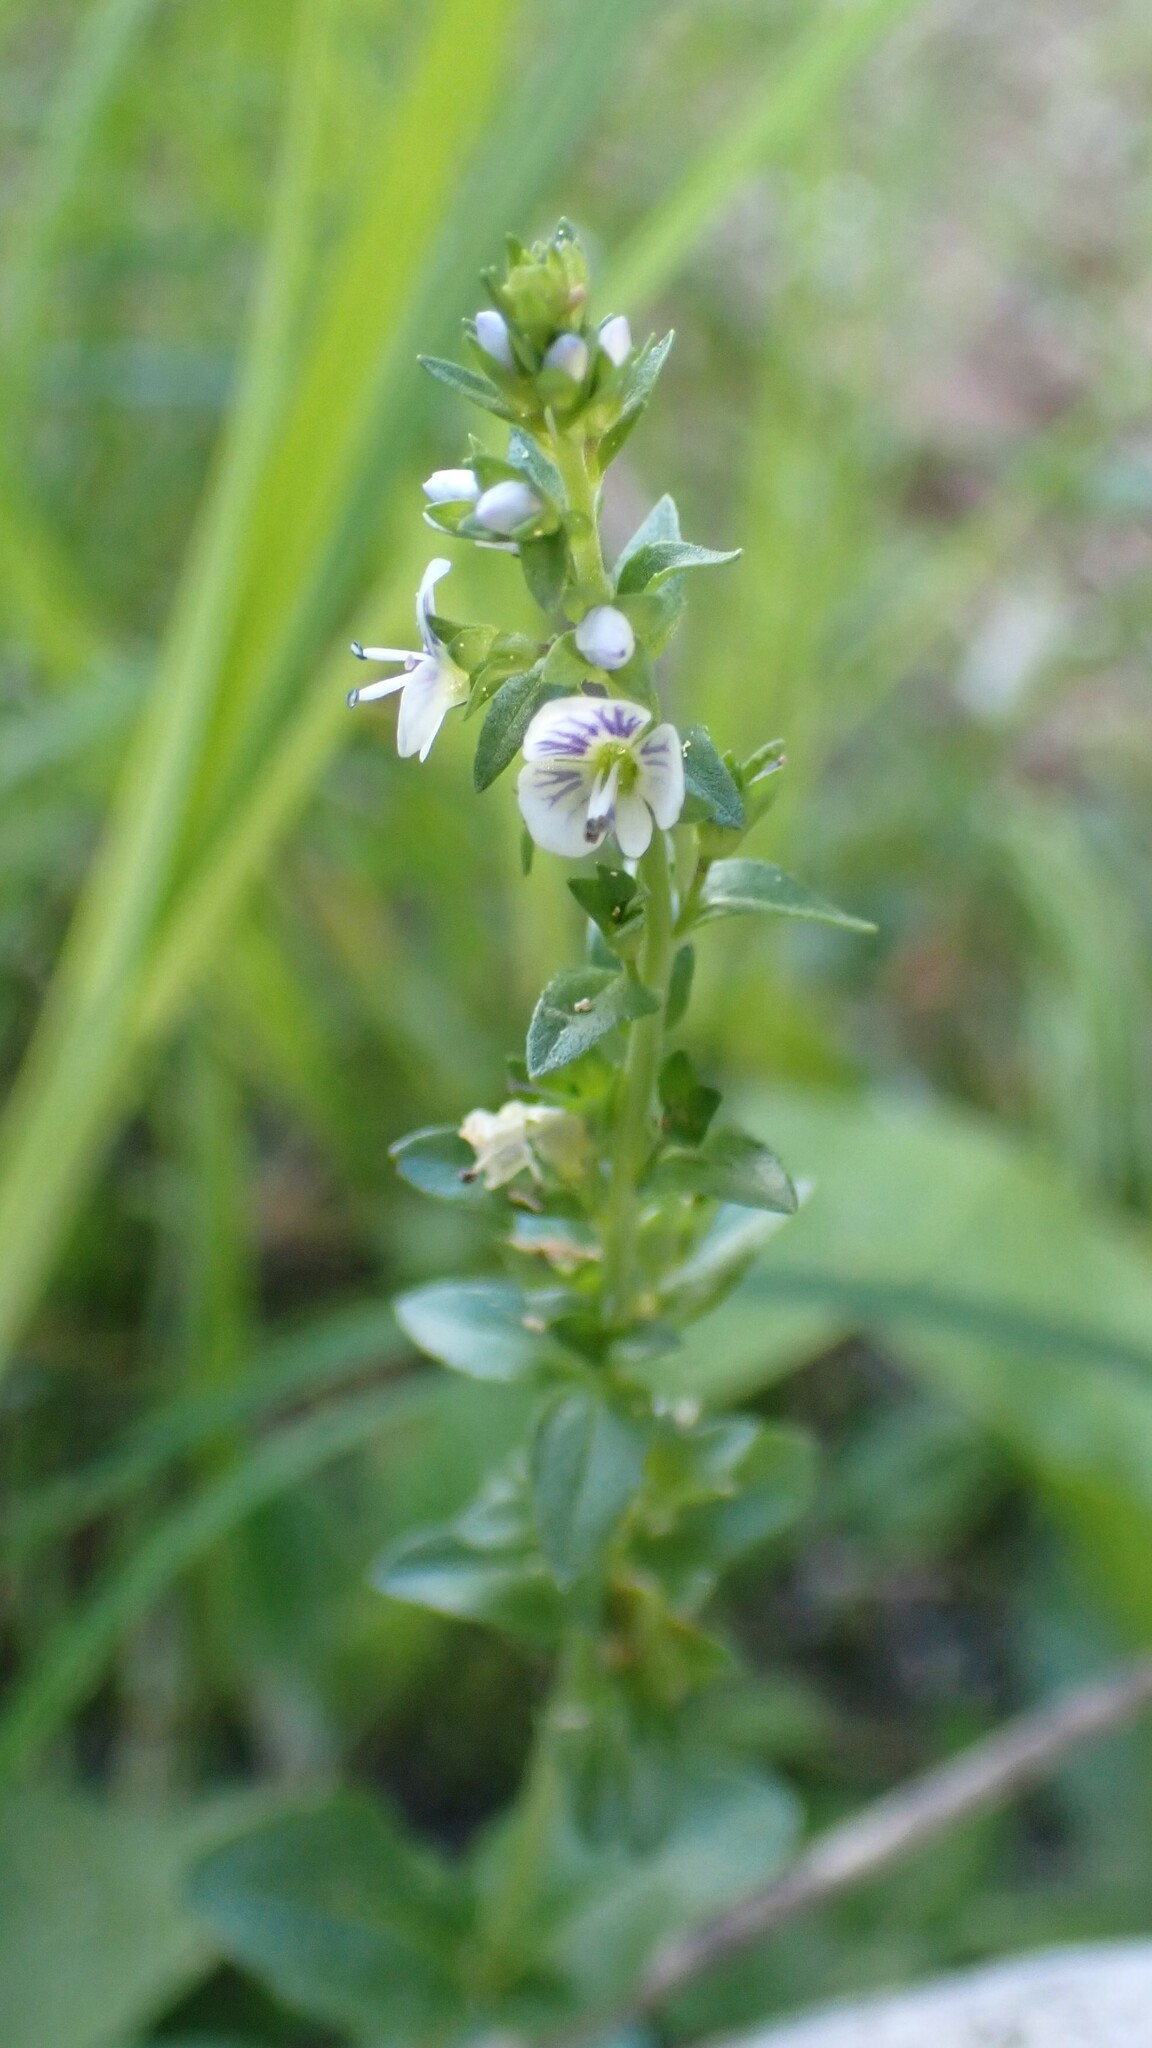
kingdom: Plantae
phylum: Tracheophyta
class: Magnoliopsida
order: Lamiales
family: Plantaginaceae
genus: Veronica
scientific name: Veronica serpyllifolia
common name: Thyme-leaved speedwell
